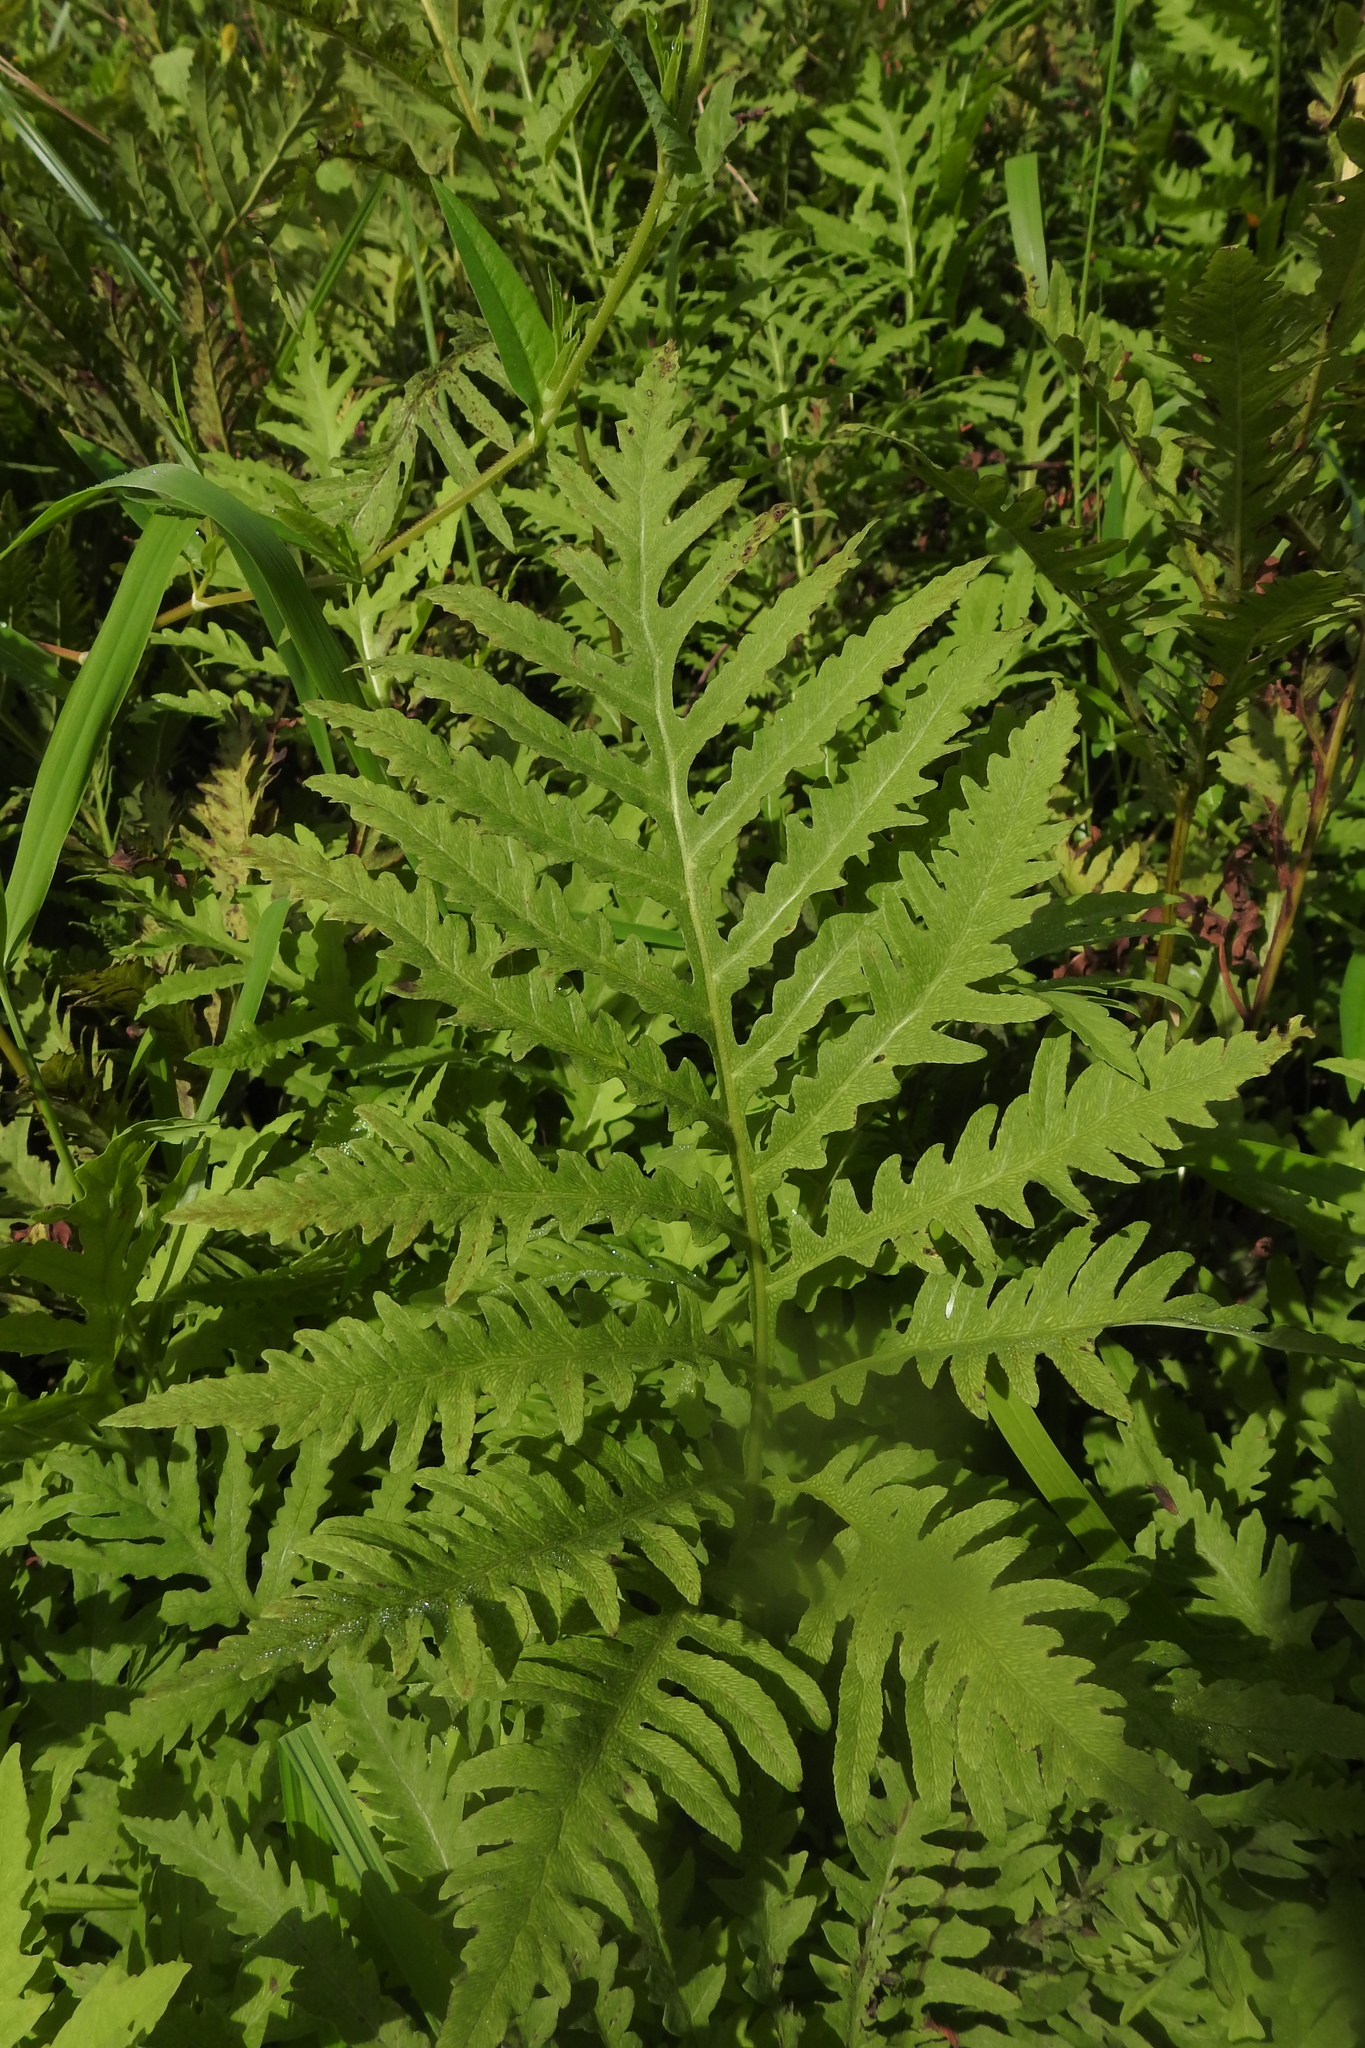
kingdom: Plantae
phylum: Tracheophyta
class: Polypodiopsida
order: Polypodiales
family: Onocleaceae
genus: Onoclea
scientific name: Onoclea sensibilis
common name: Sensitive fern
